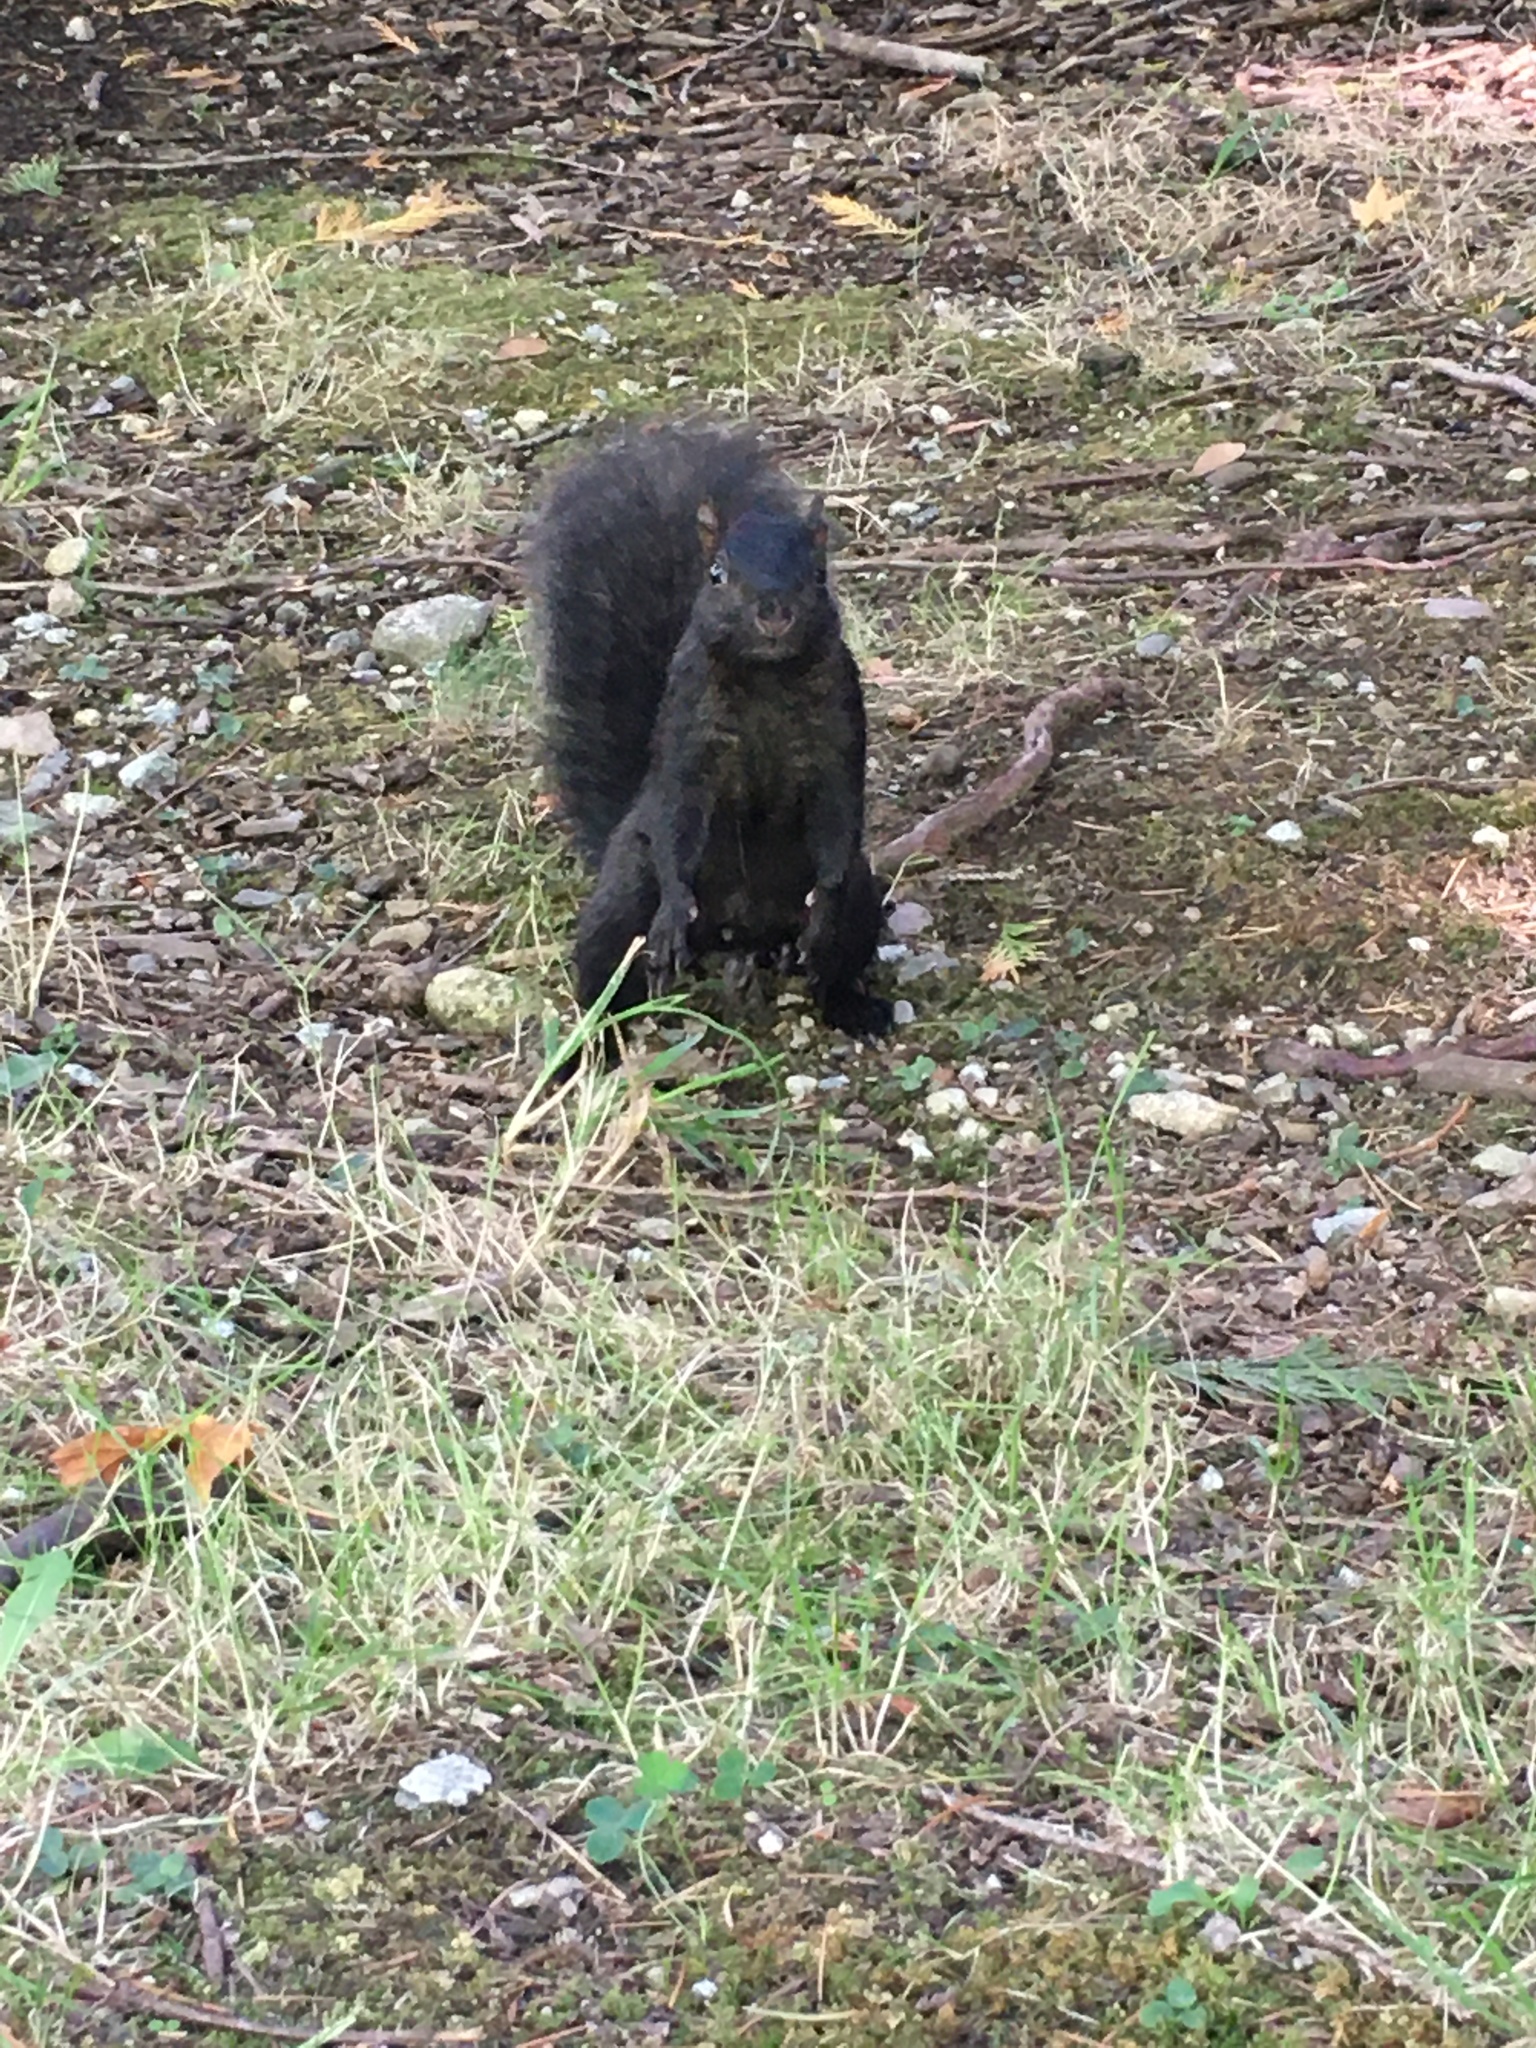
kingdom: Animalia
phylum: Chordata
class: Mammalia
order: Rodentia
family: Sciuridae
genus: Sciurus
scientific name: Sciurus carolinensis
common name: Eastern gray squirrel
